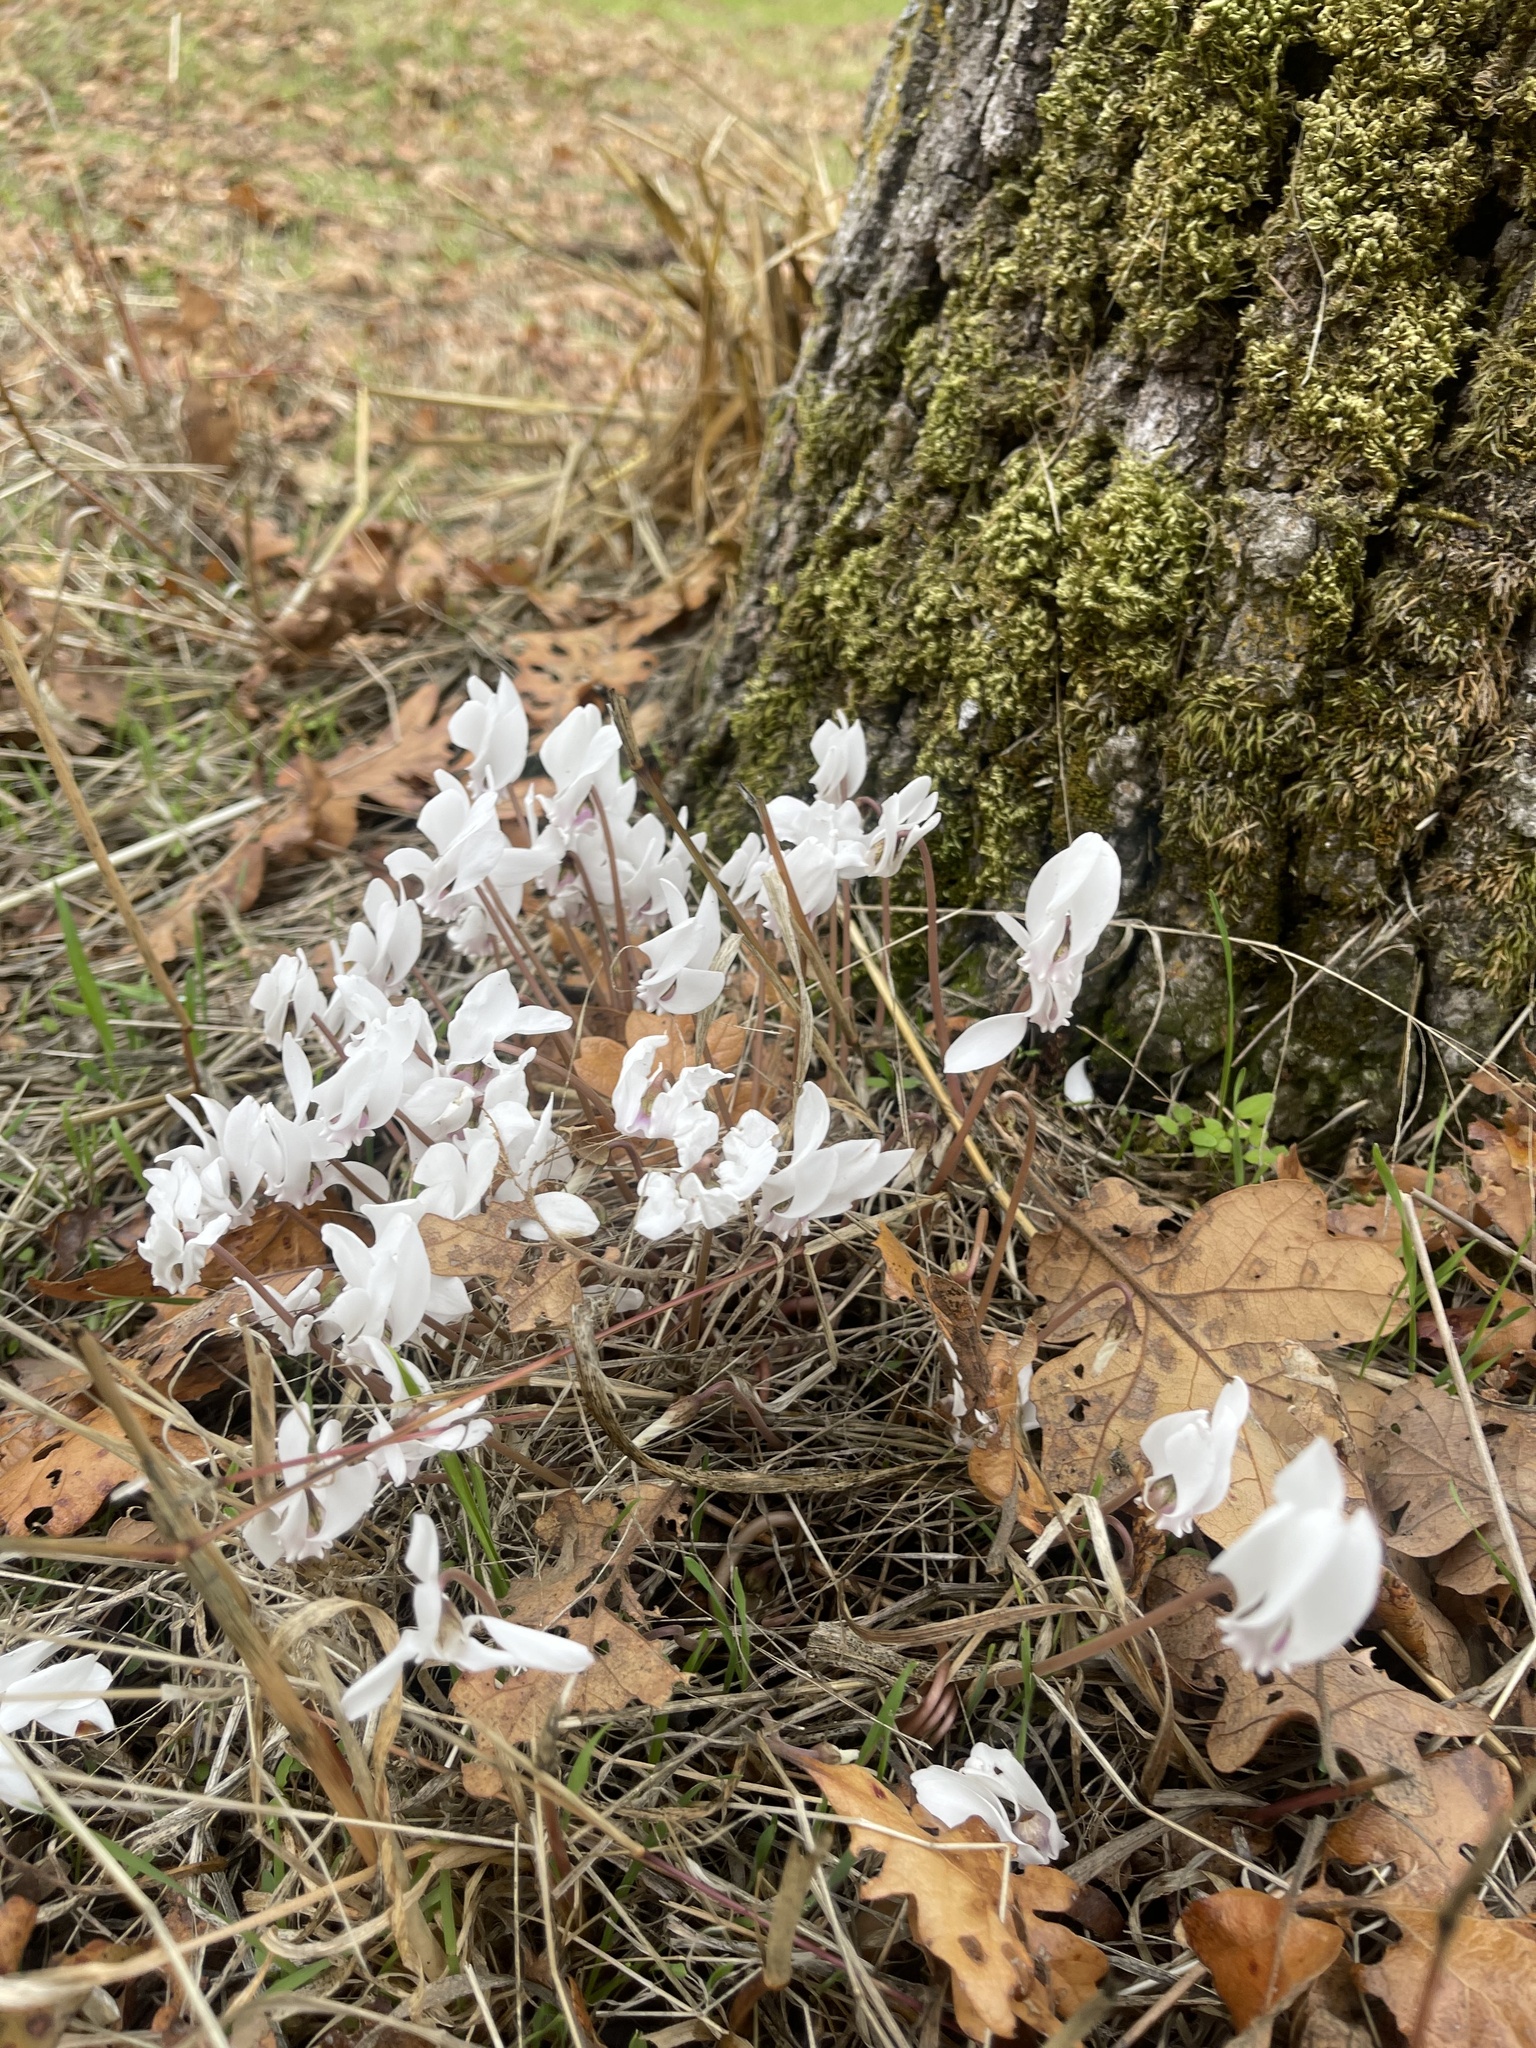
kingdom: Plantae
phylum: Tracheophyta
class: Magnoliopsida
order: Ericales
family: Primulaceae
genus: Cyclamen
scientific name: Cyclamen hederifolium
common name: Sowbread
